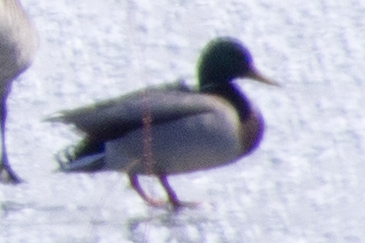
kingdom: Animalia
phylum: Chordata
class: Aves
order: Anseriformes
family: Anatidae
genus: Anas
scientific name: Anas platyrhynchos
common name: Mallard
